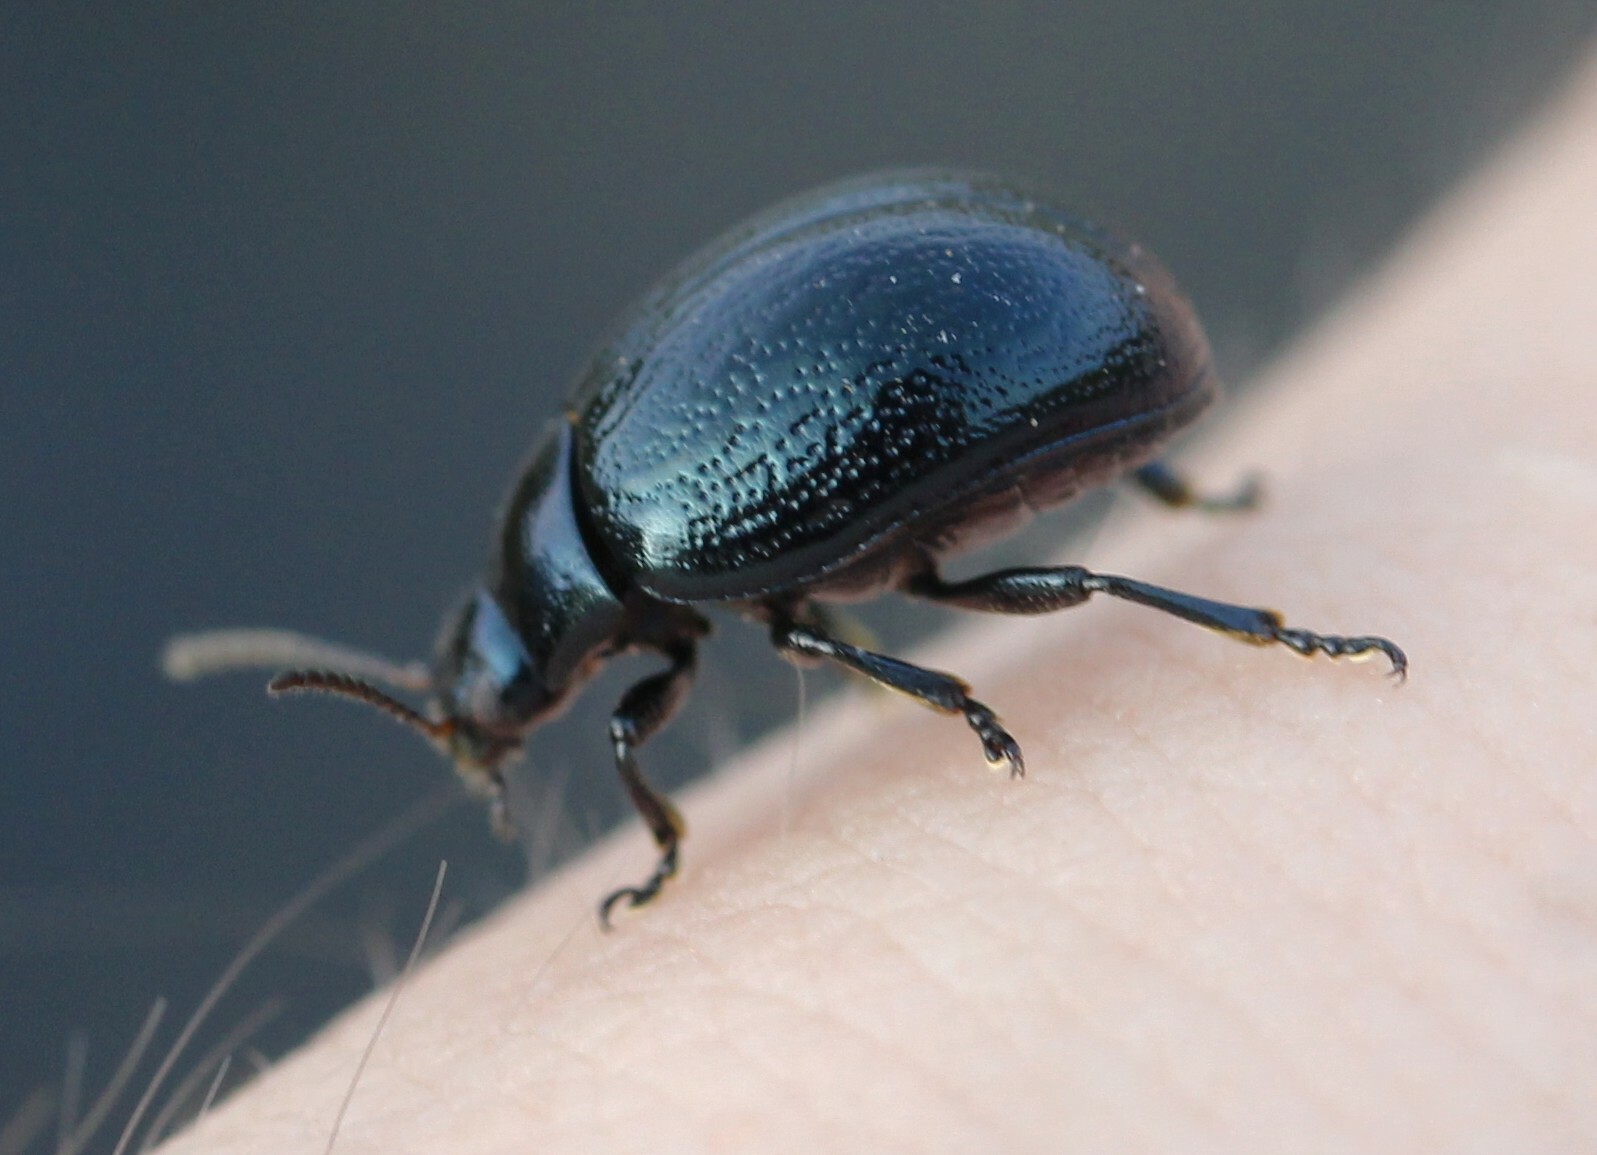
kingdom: Animalia
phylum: Arthropoda
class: Insecta
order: Coleoptera
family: Chrysomelidae
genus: Chrysolina
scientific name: Chrysolina haemoptera
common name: Plantain leaf beetle
